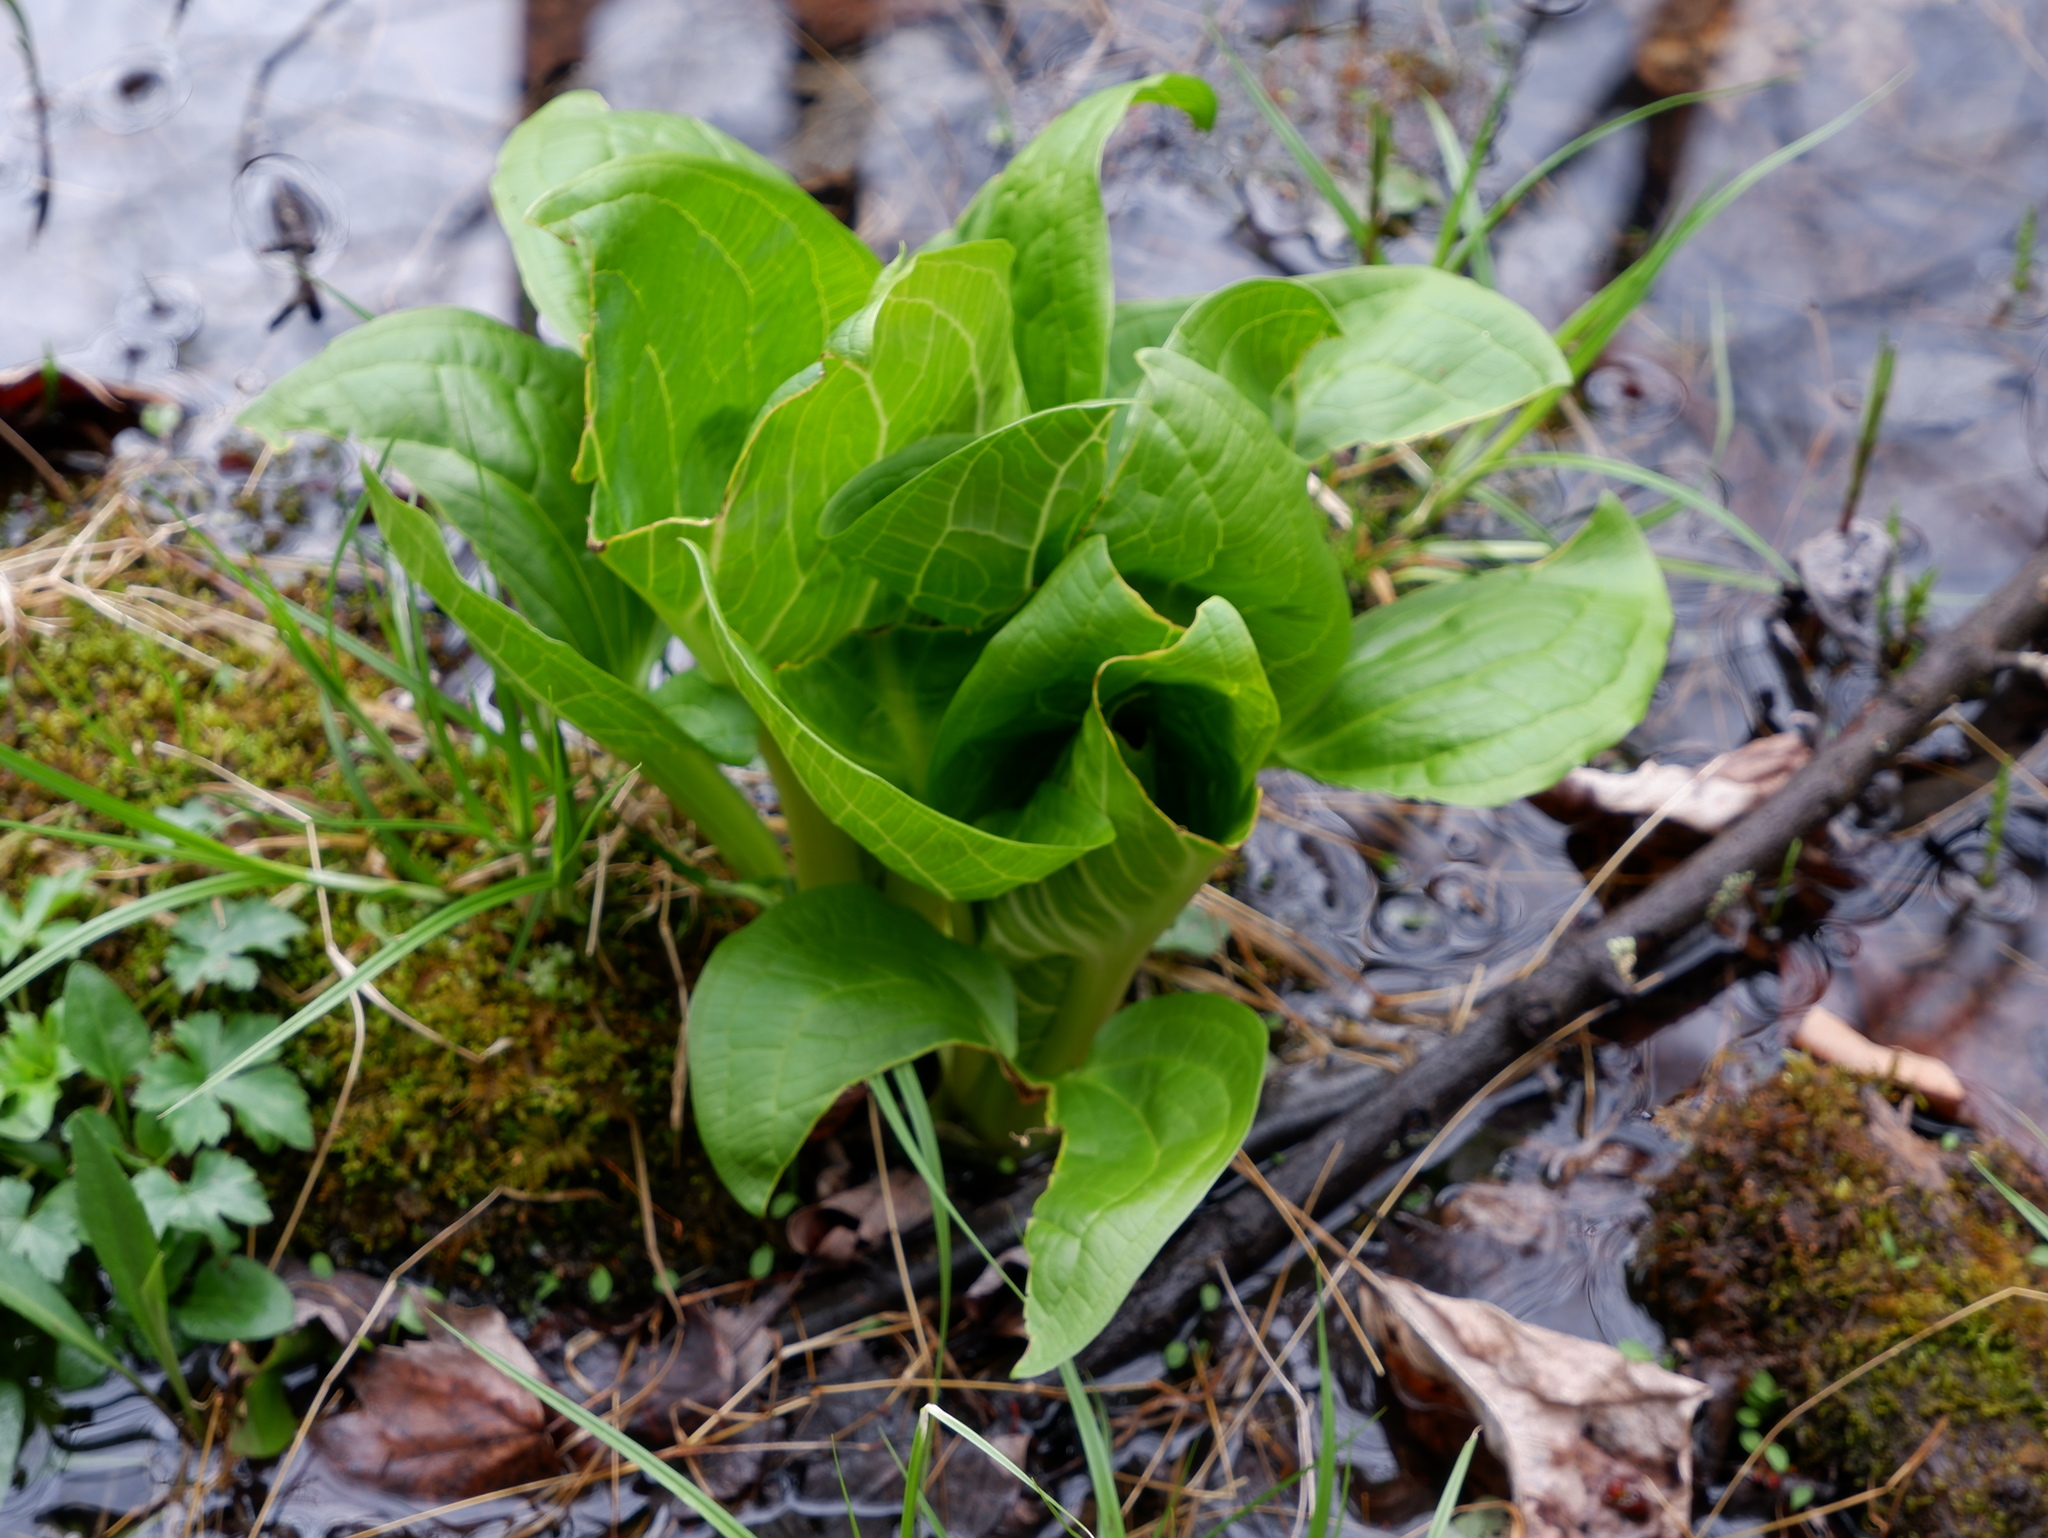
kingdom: Plantae
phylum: Tracheophyta
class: Liliopsida
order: Alismatales
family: Araceae
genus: Symplocarpus
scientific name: Symplocarpus foetidus
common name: Eastern skunk cabbage
